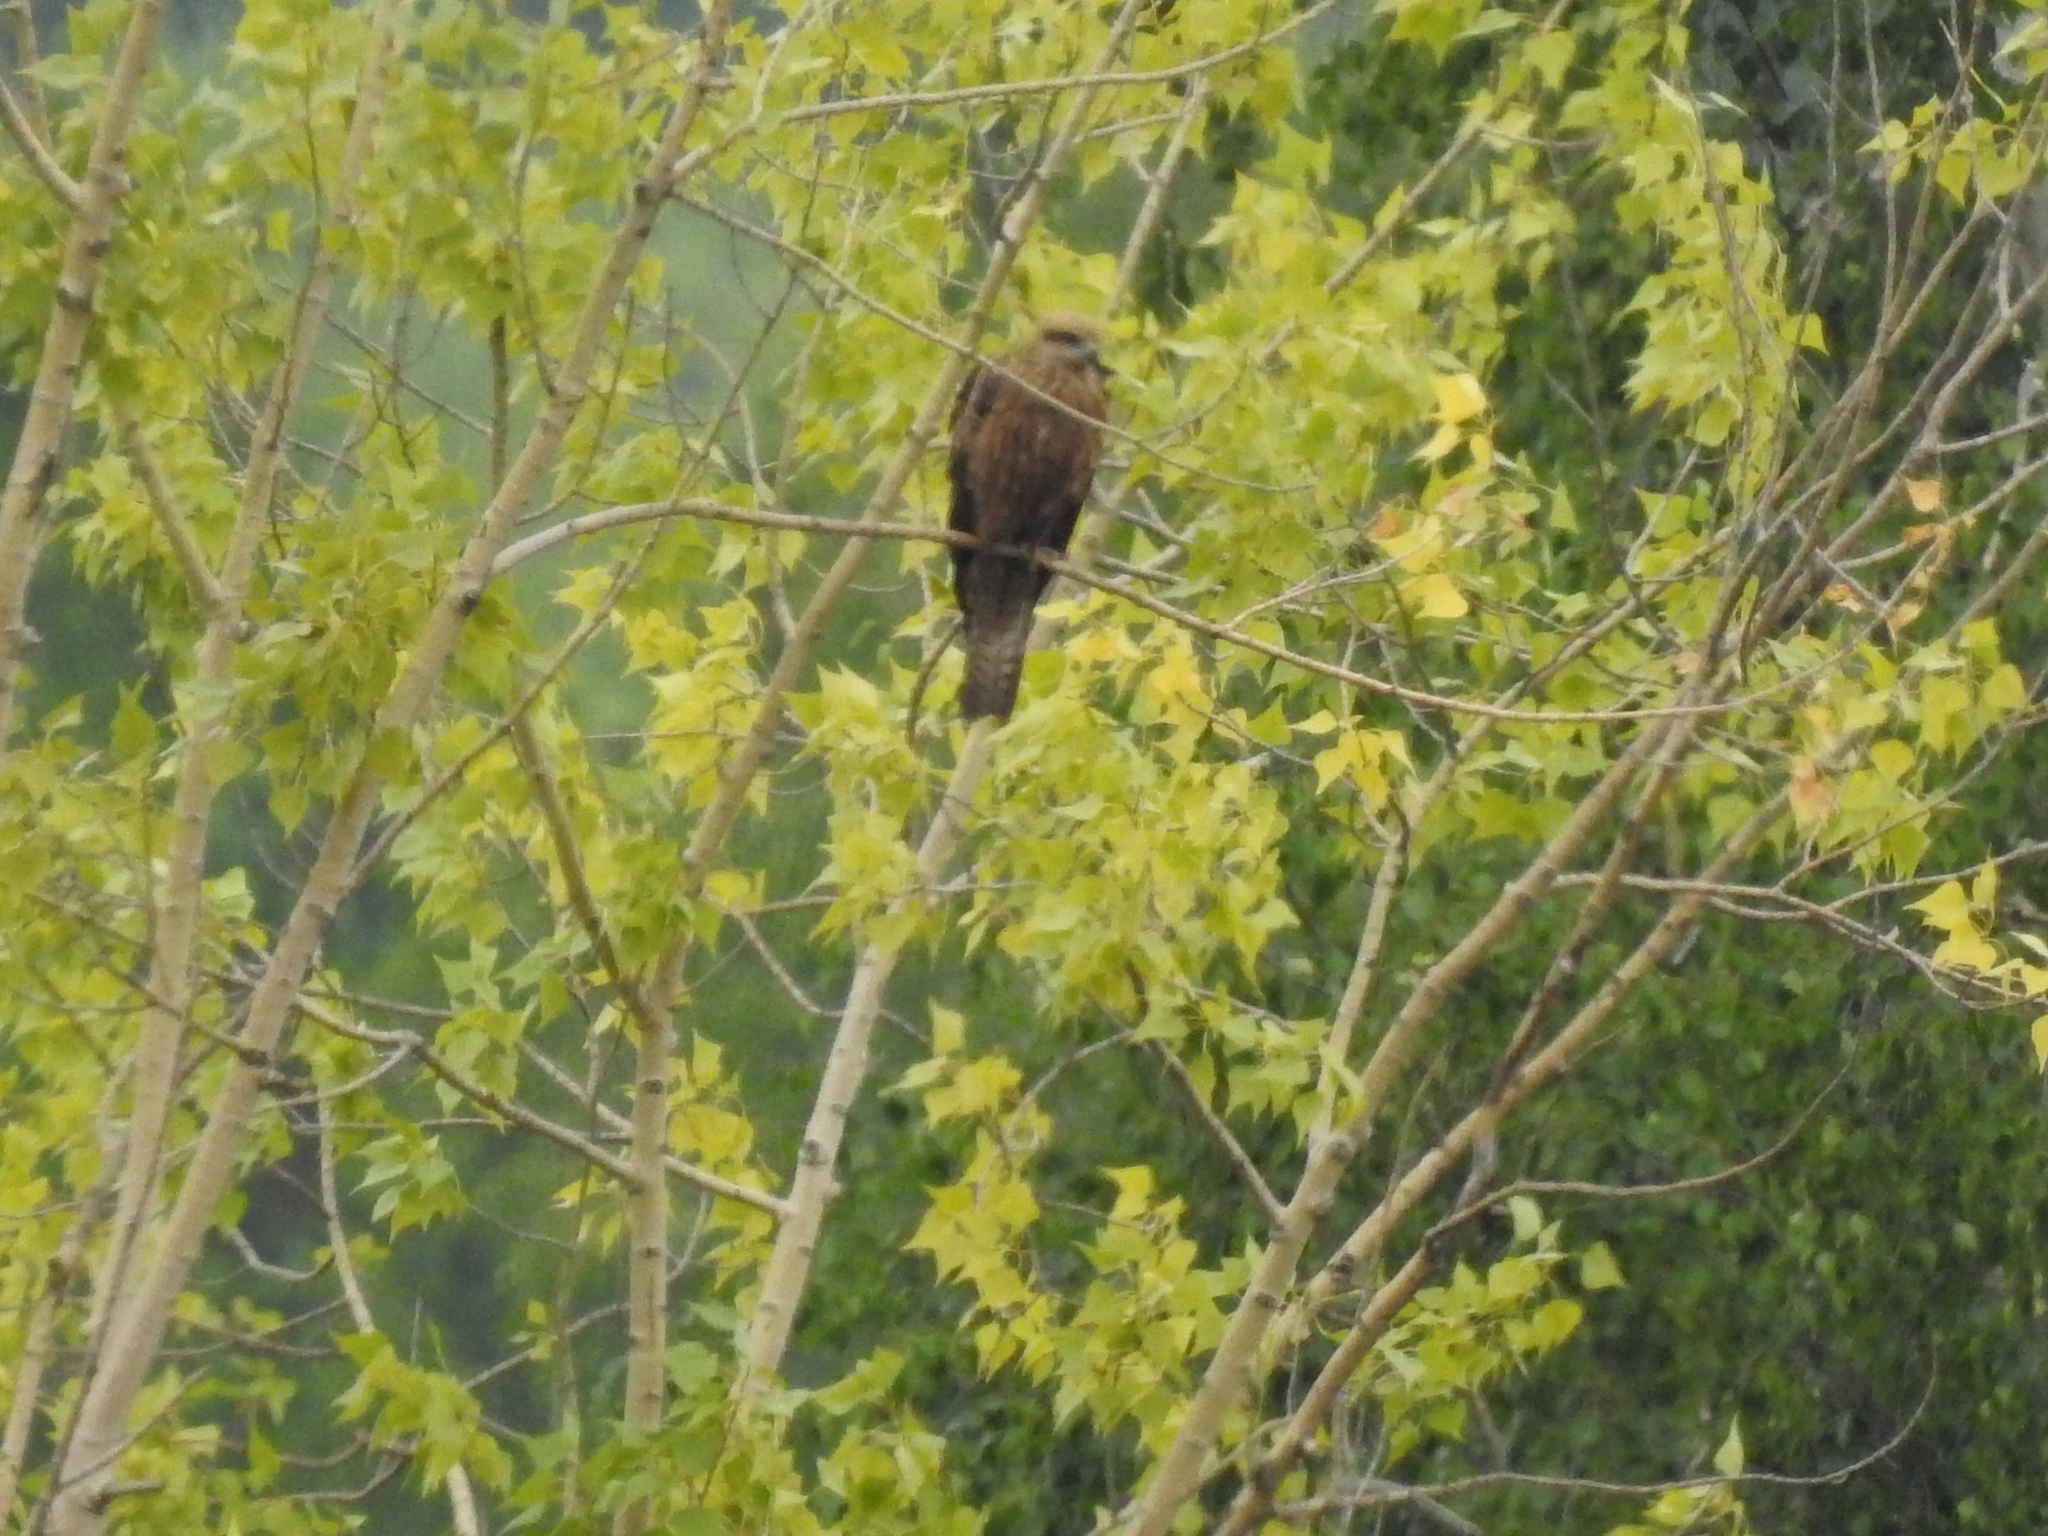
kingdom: Animalia
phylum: Chordata
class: Aves
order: Accipitriformes
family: Accipitridae
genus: Milvus
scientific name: Milvus migrans
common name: Black kite
